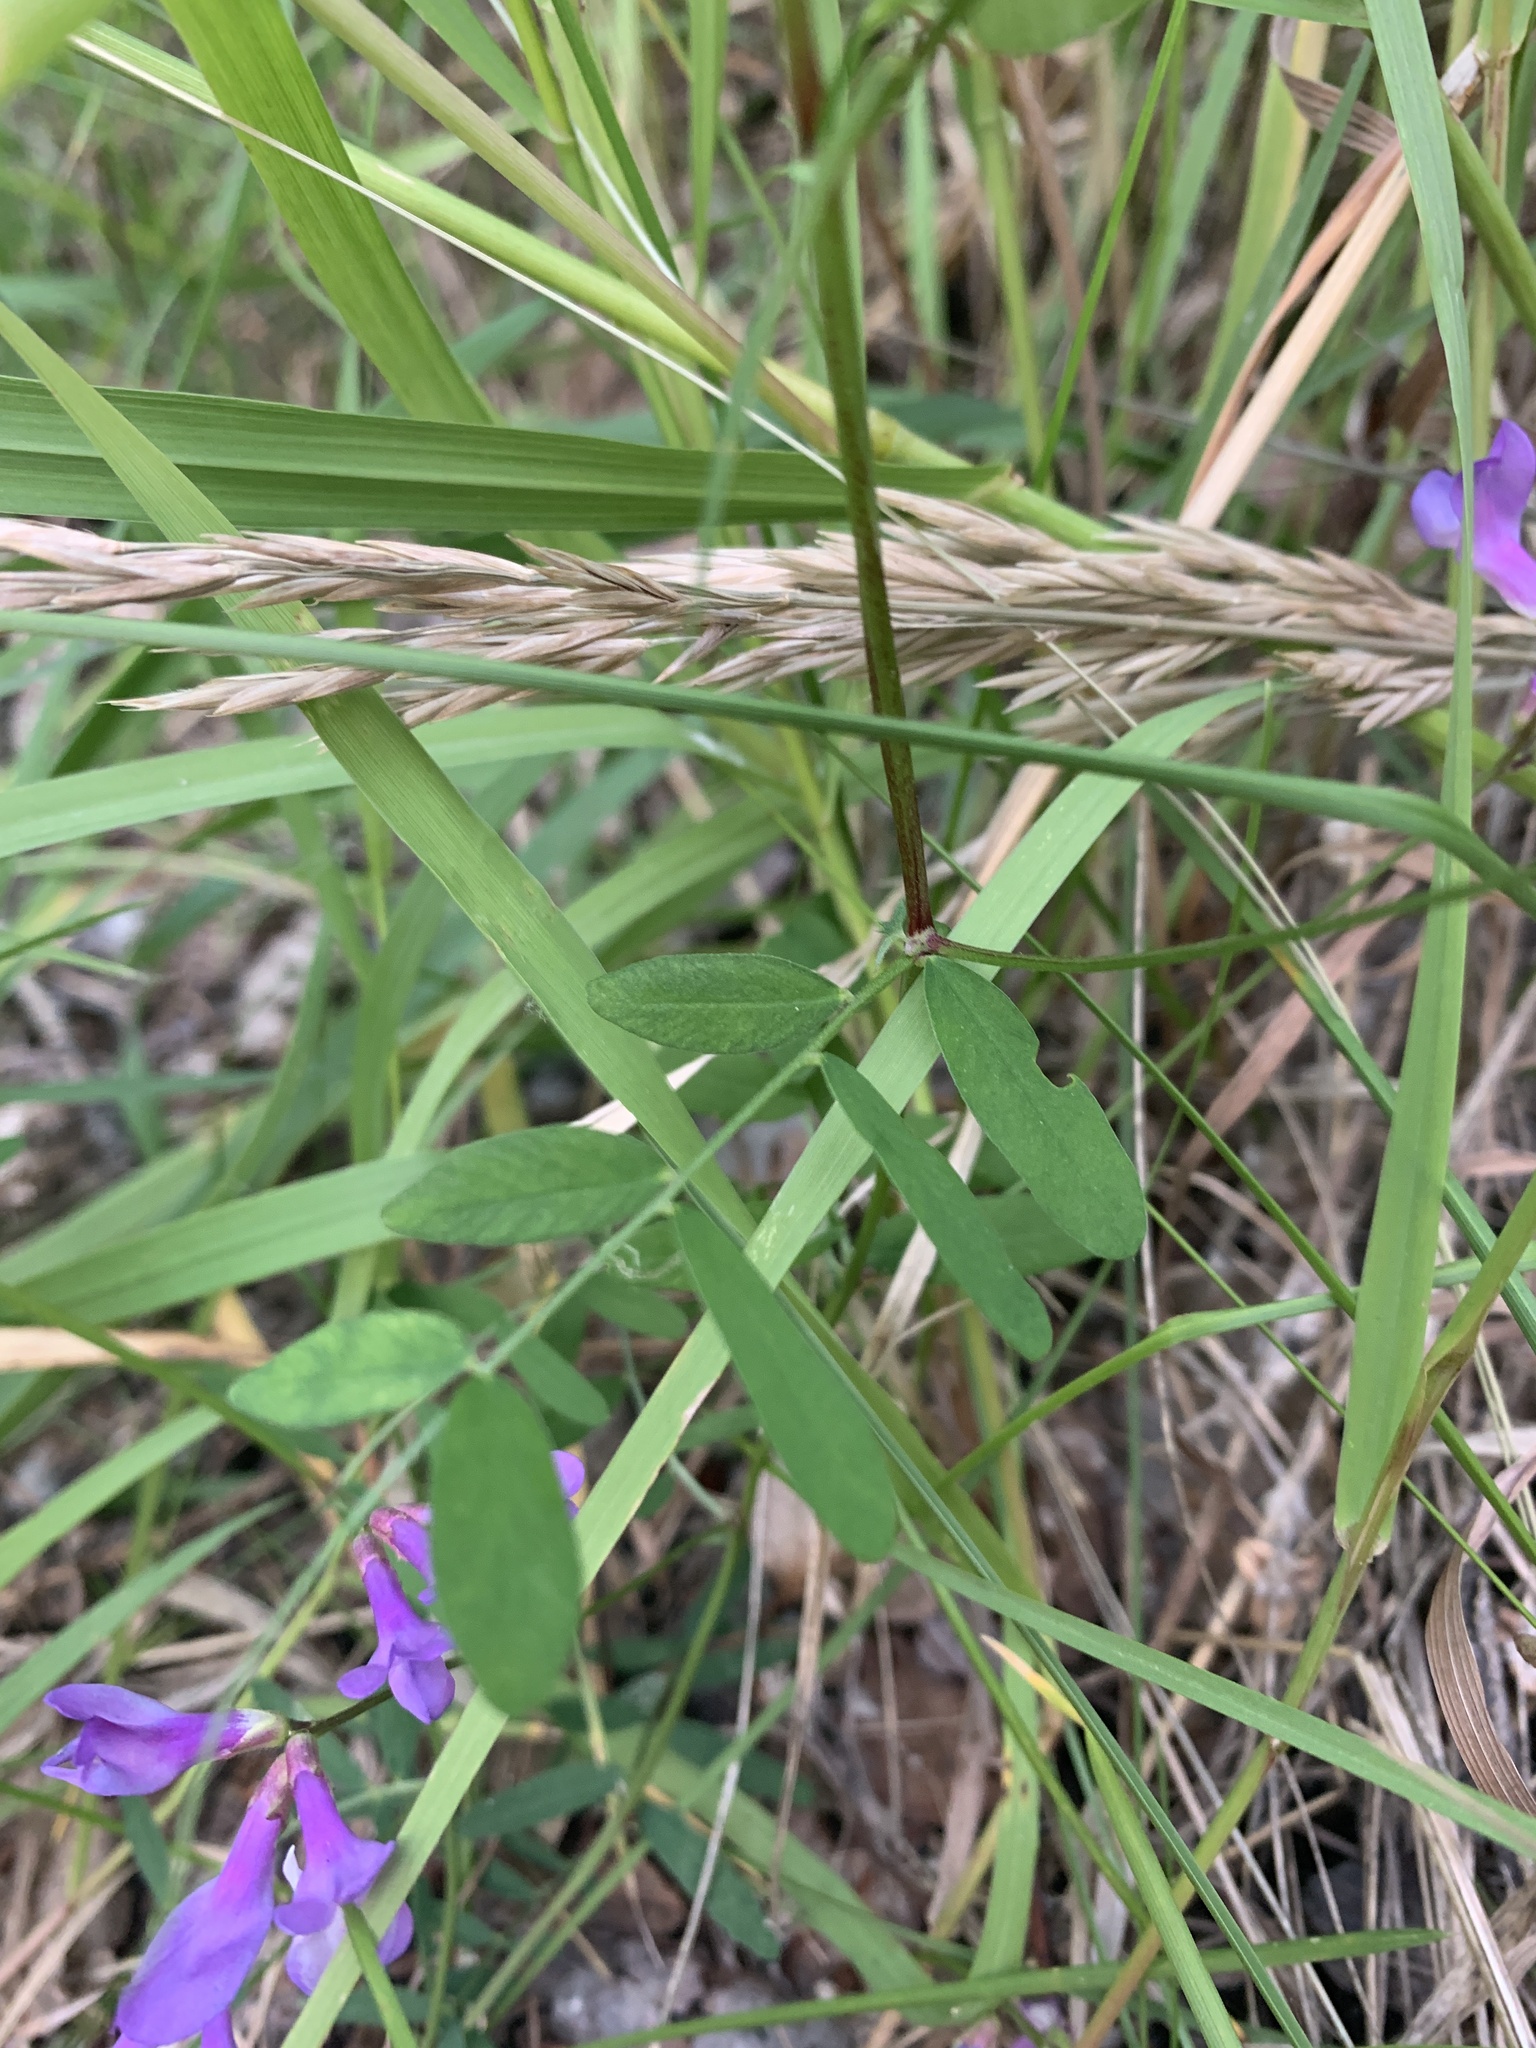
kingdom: Plantae
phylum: Tracheophyta
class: Magnoliopsida
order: Fabales
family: Fabaceae
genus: Vicia
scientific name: Vicia americana
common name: American vetch
